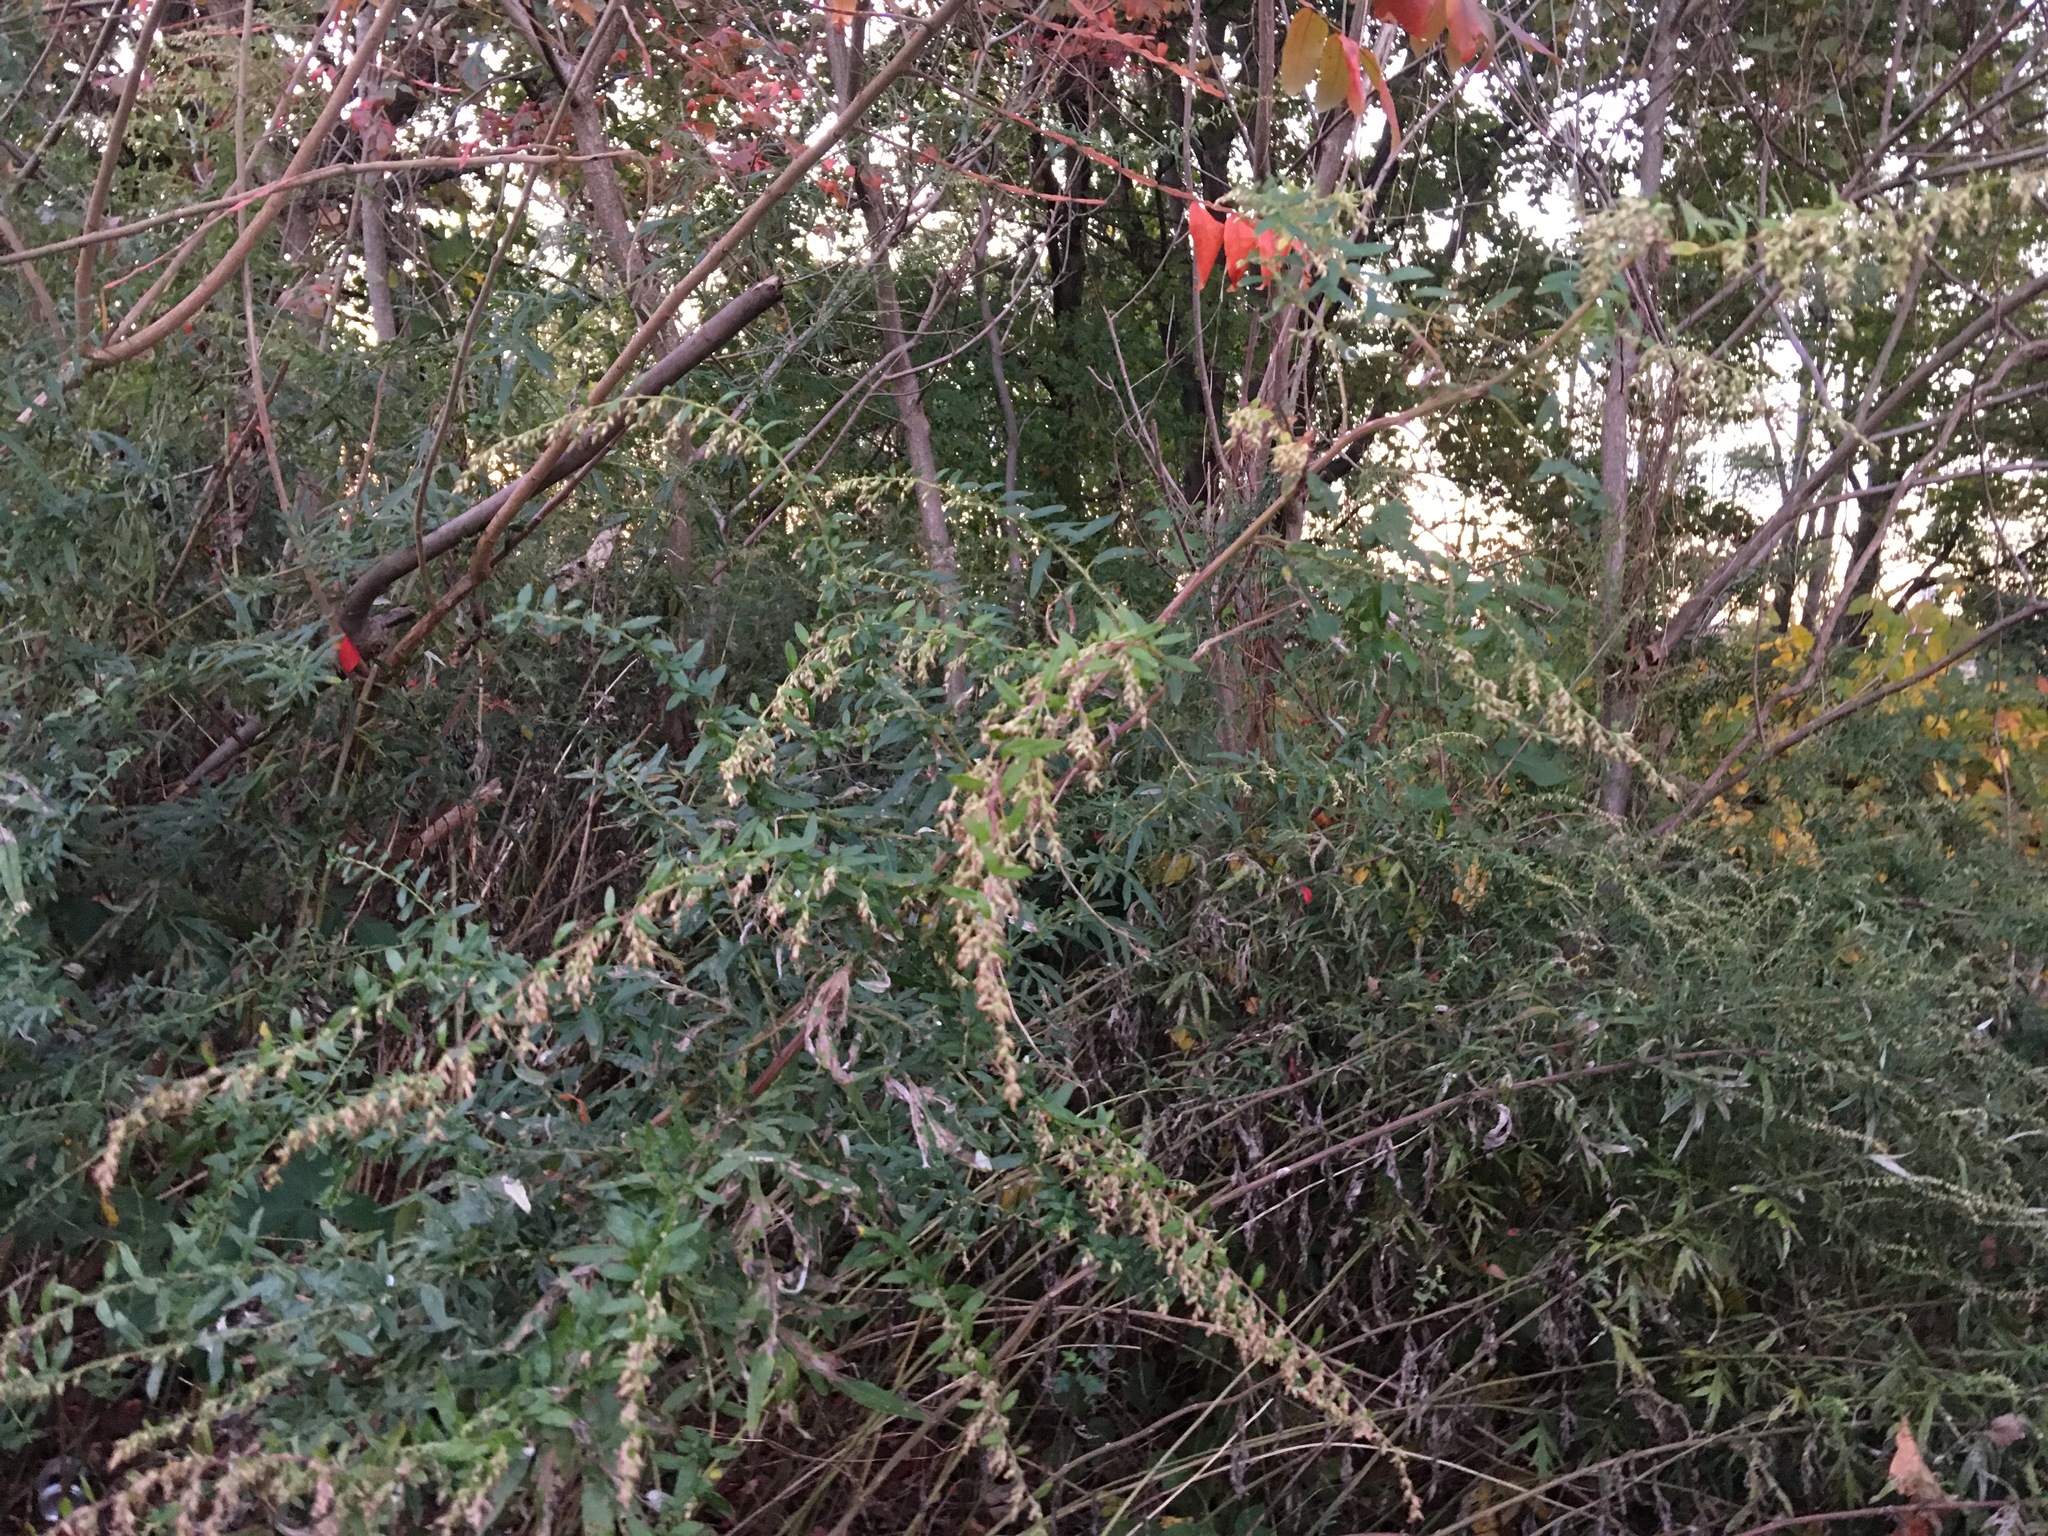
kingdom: Plantae
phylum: Tracheophyta
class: Magnoliopsida
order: Asterales
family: Asteraceae
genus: Artemisia
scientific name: Artemisia vulgaris
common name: Mugwort
